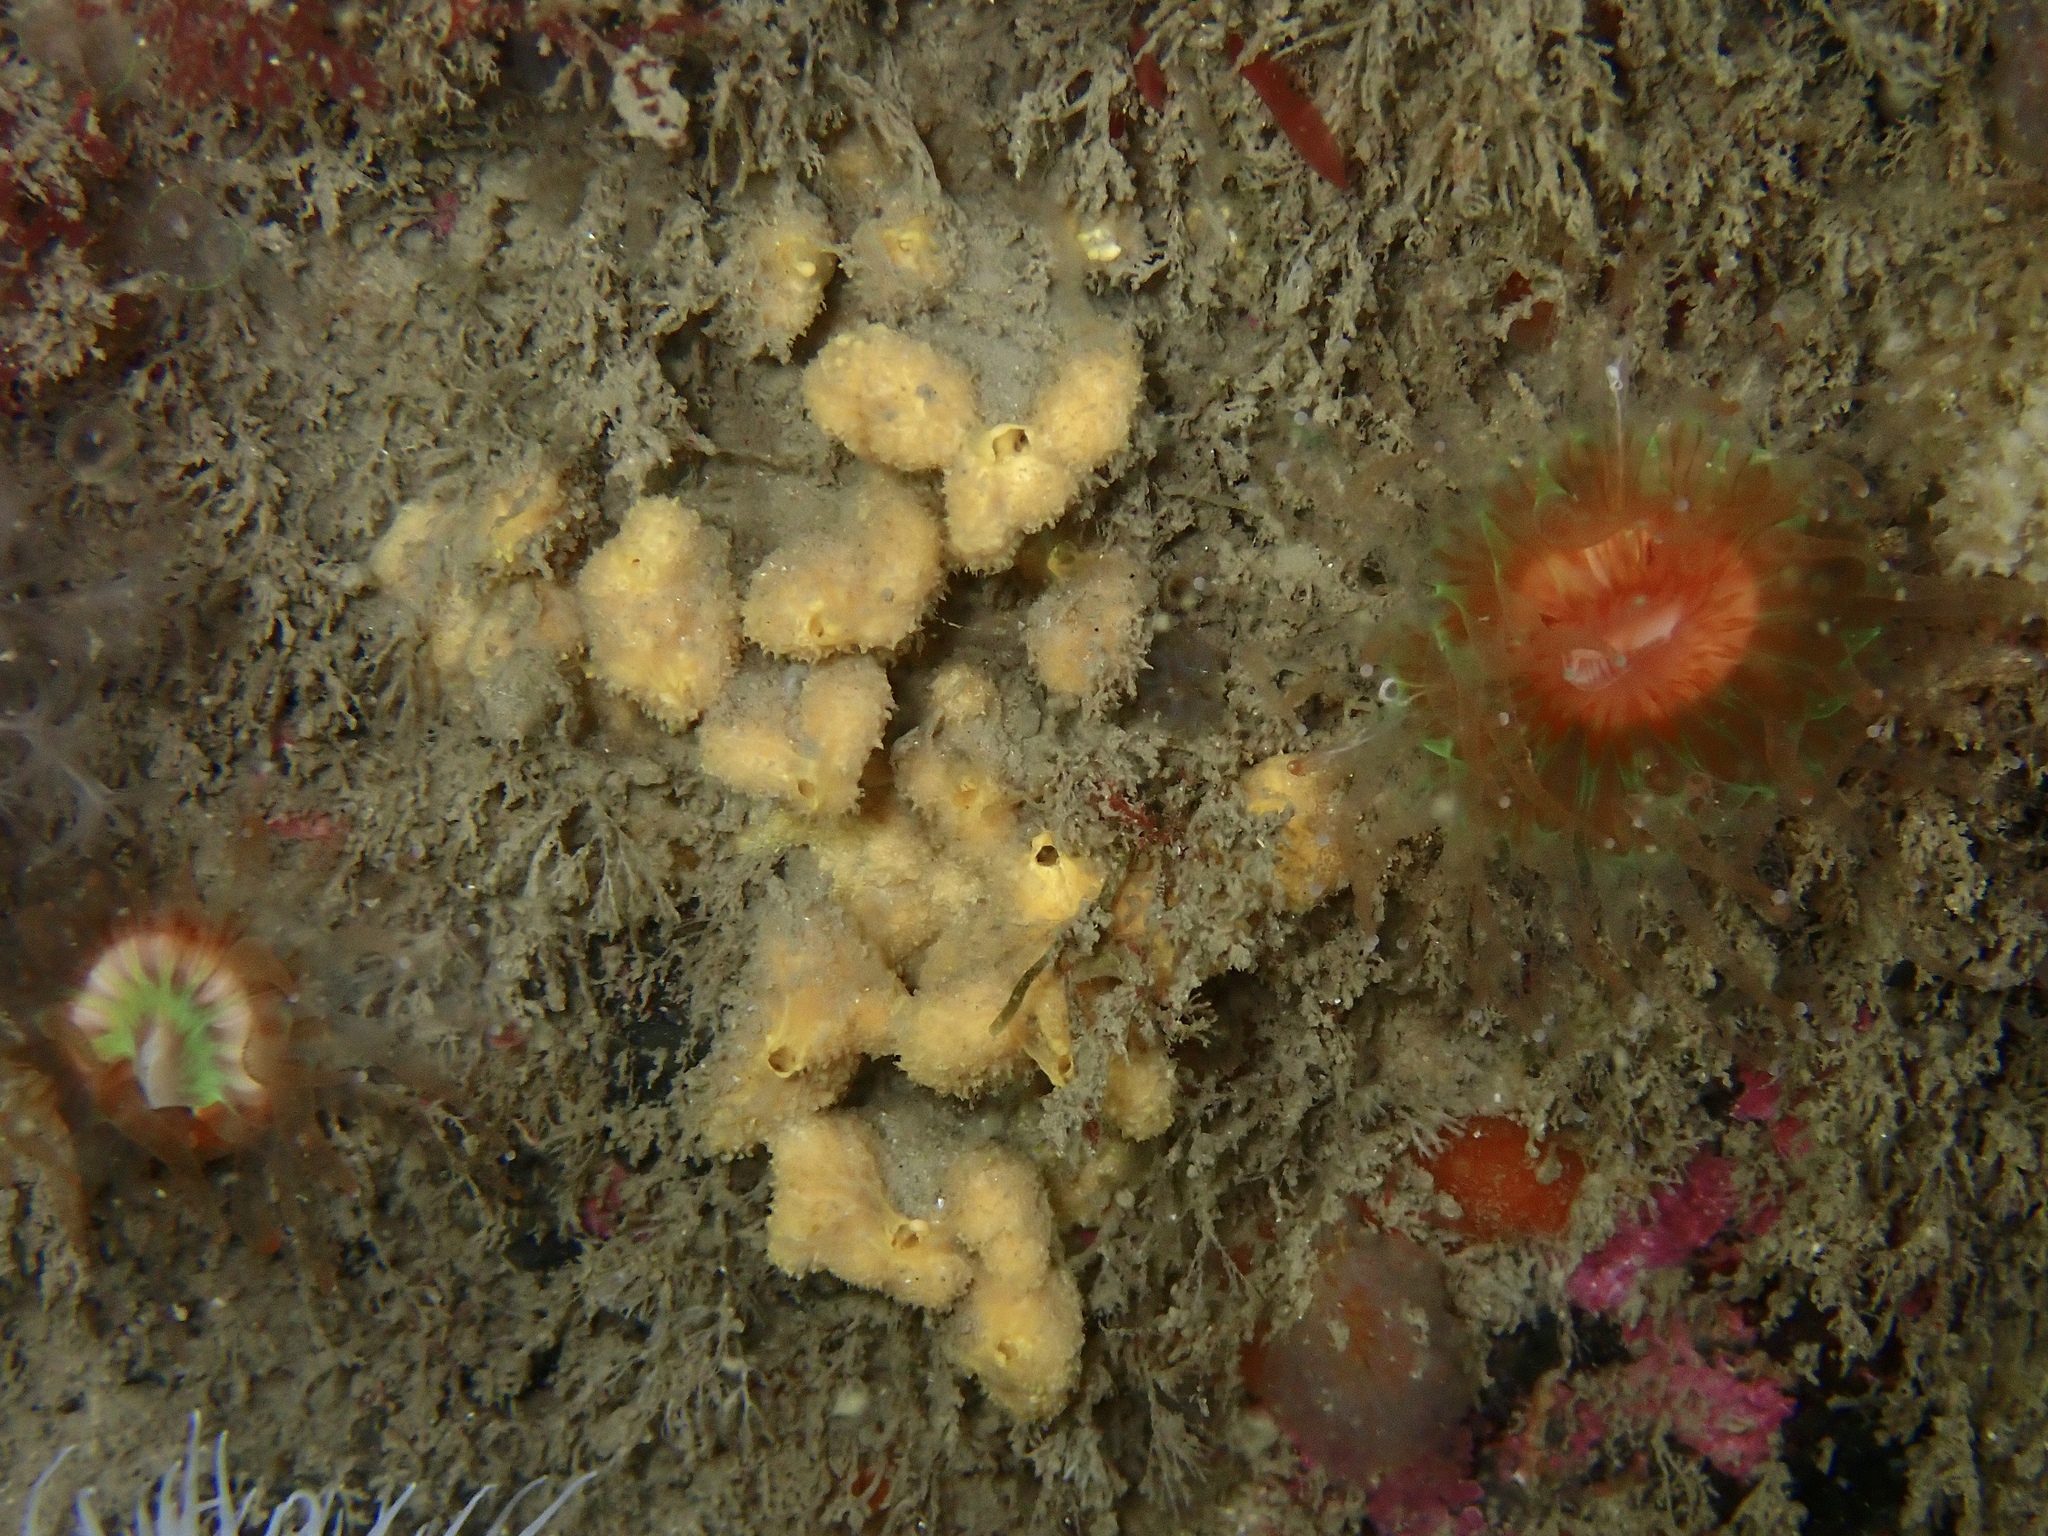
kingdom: Animalia
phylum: Porifera
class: Demospongiae
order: Axinellida
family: Axinellidae
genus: Axinella
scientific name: Axinella damicornis
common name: Crumpled duster sponge
